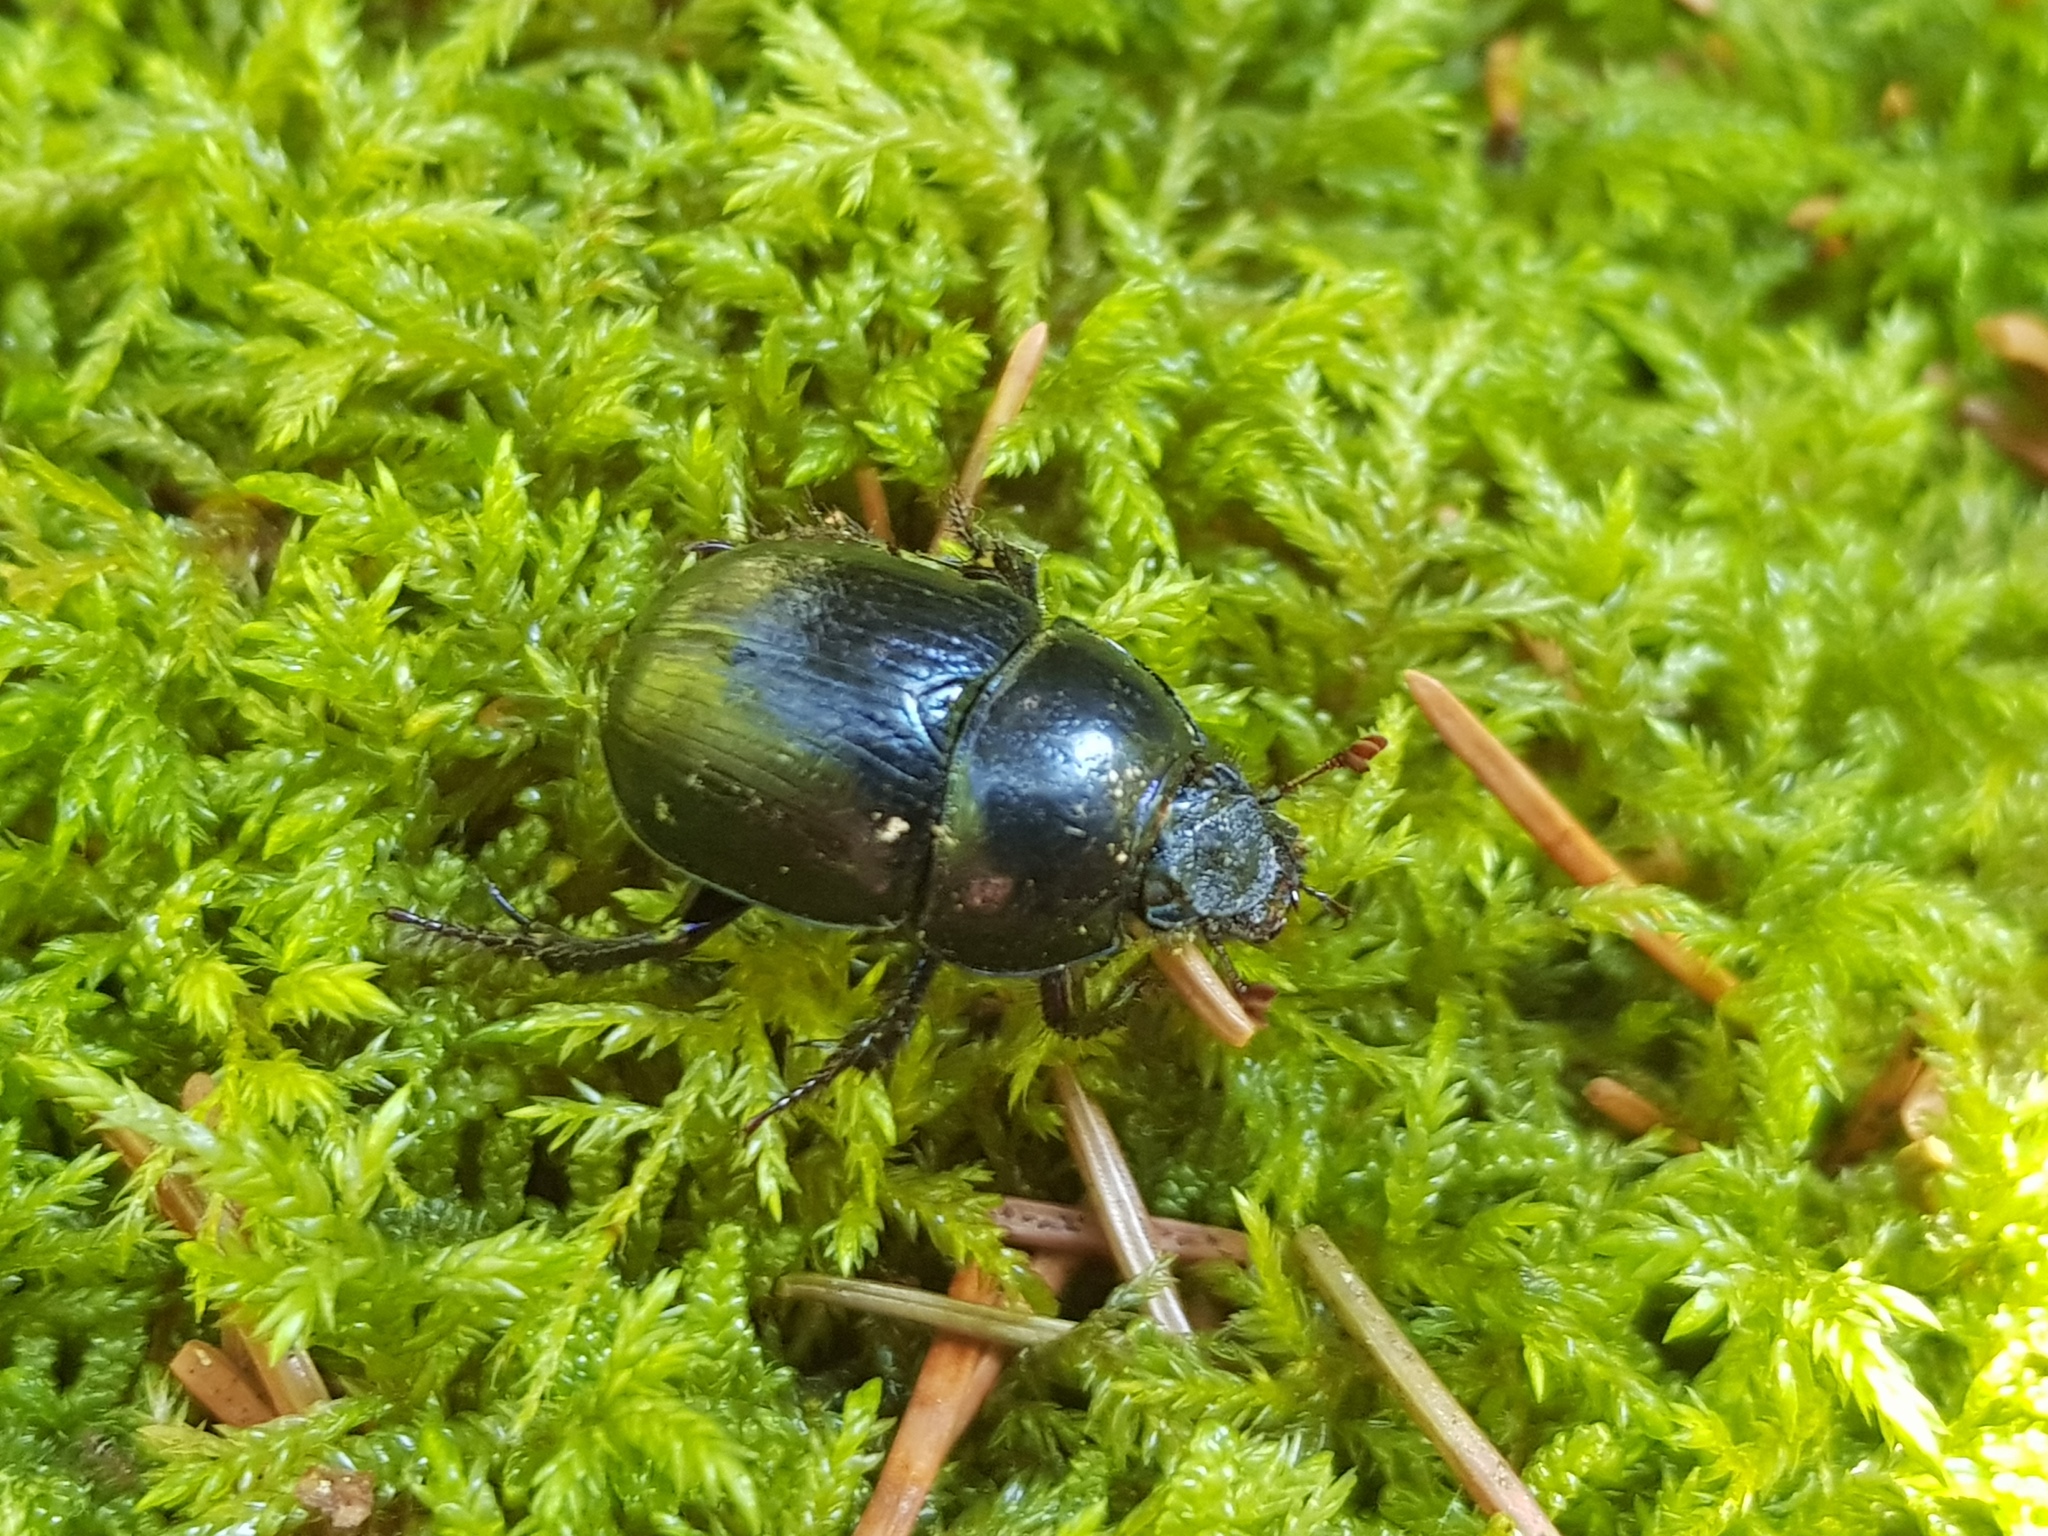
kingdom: Animalia
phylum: Arthropoda
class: Insecta
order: Coleoptera
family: Geotrupidae
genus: Anoplotrupes
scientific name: Anoplotrupes stercorosus
